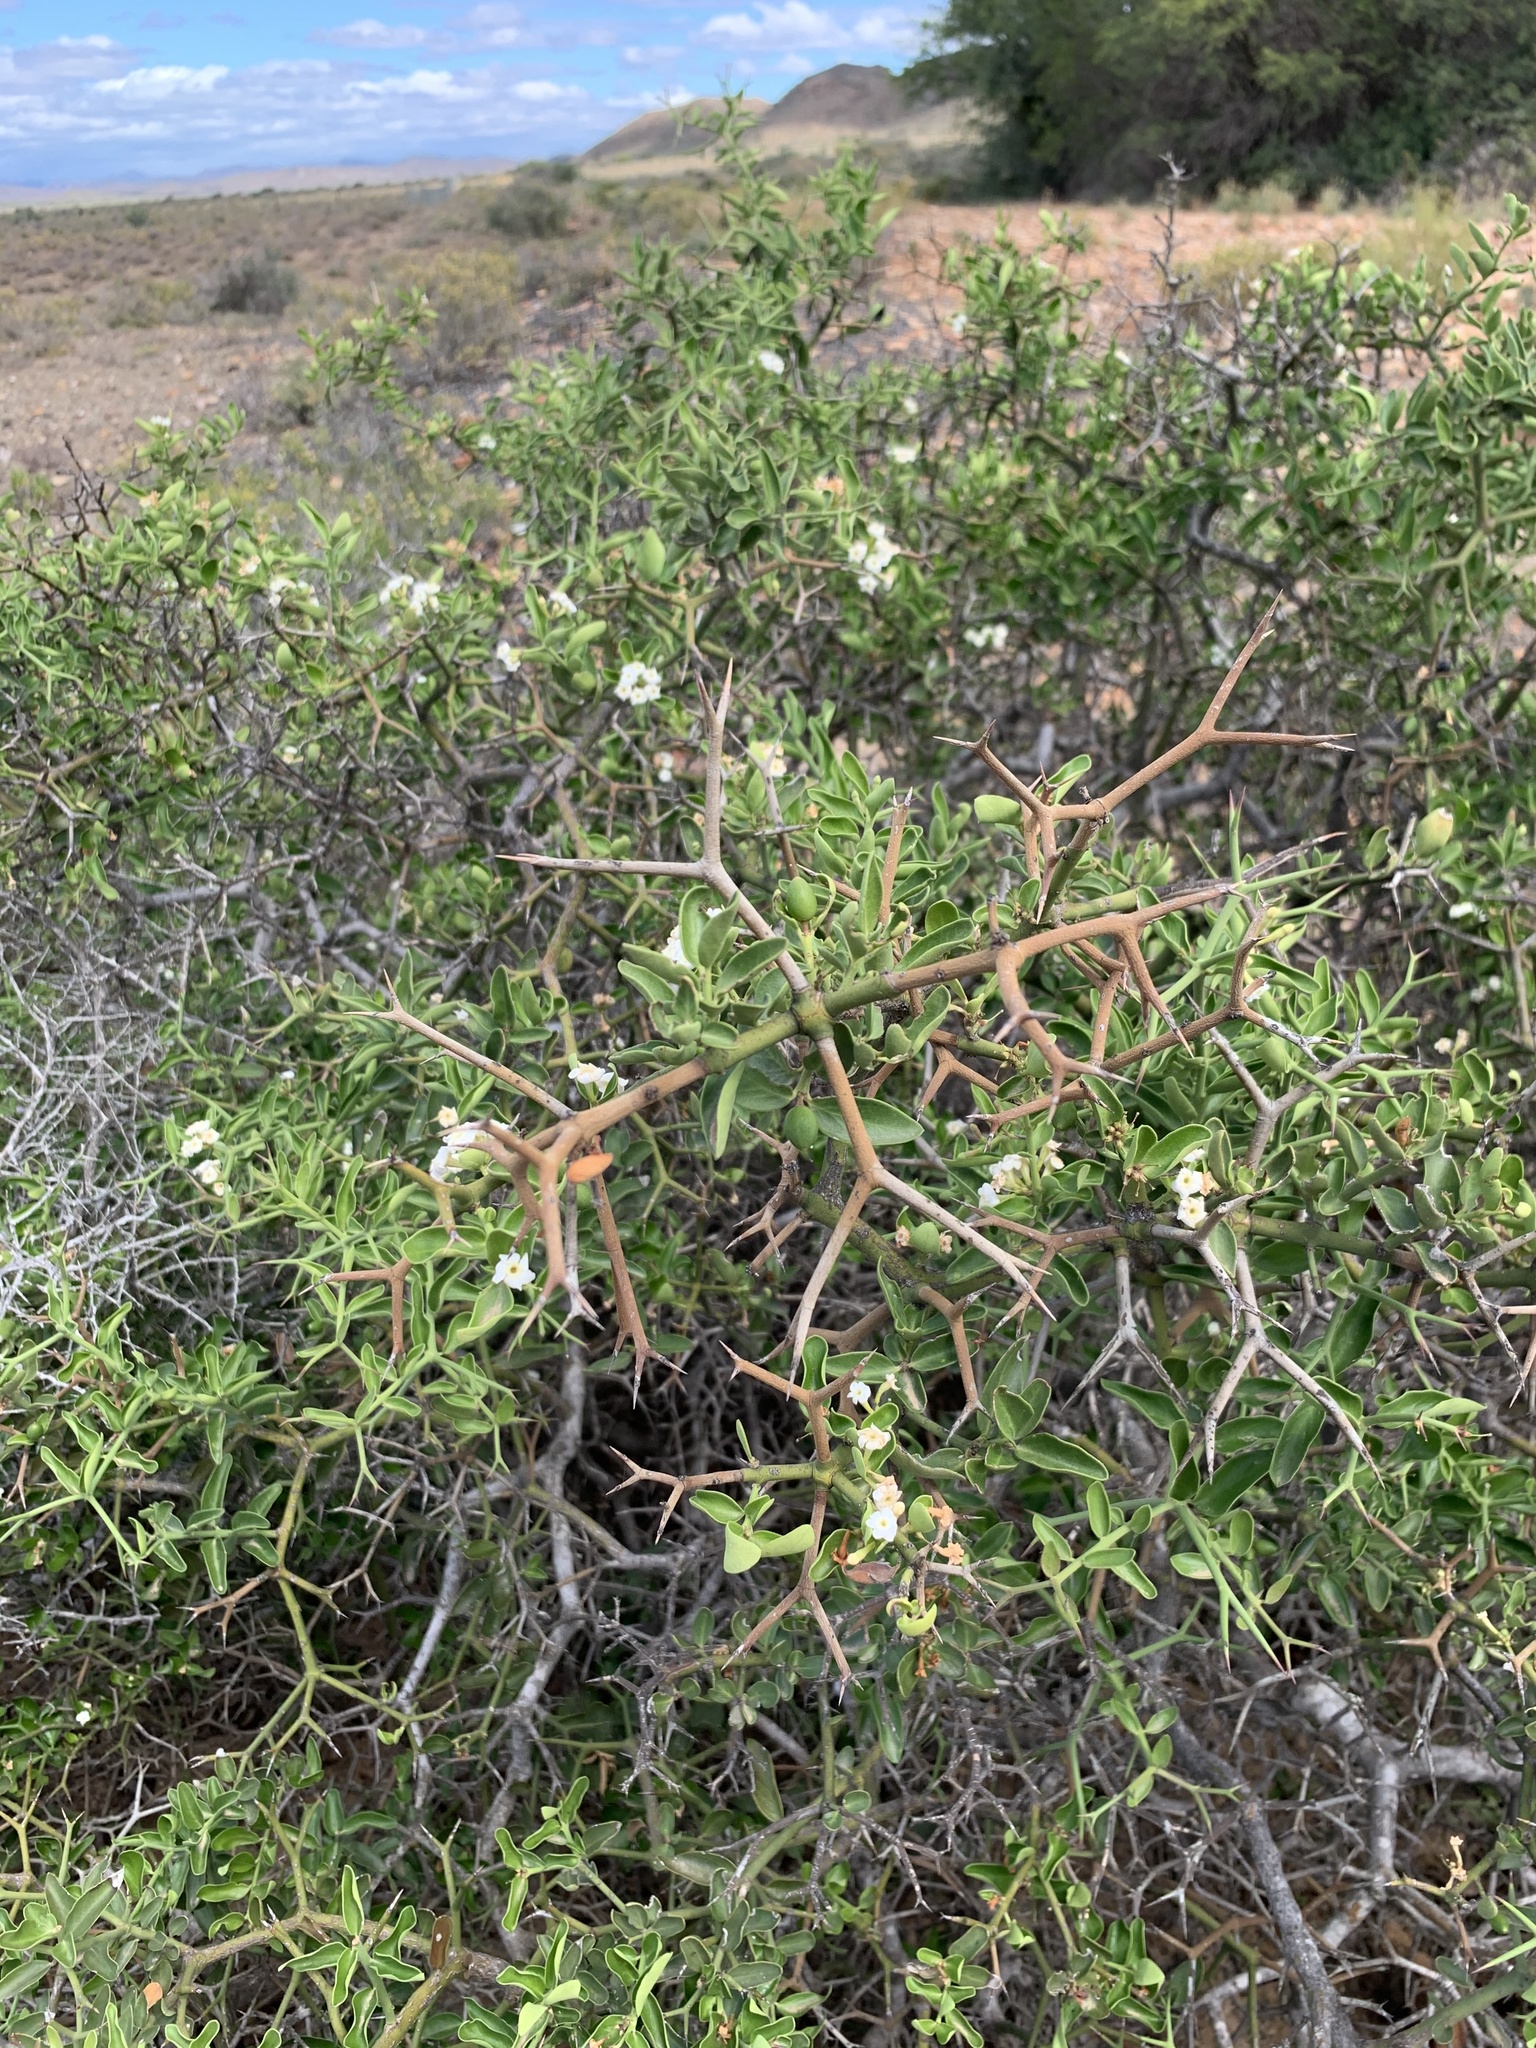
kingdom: Plantae
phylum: Tracheophyta
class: Magnoliopsida
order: Gentianales
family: Apocynaceae
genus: Carissa
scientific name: Carissa haematocarpa
